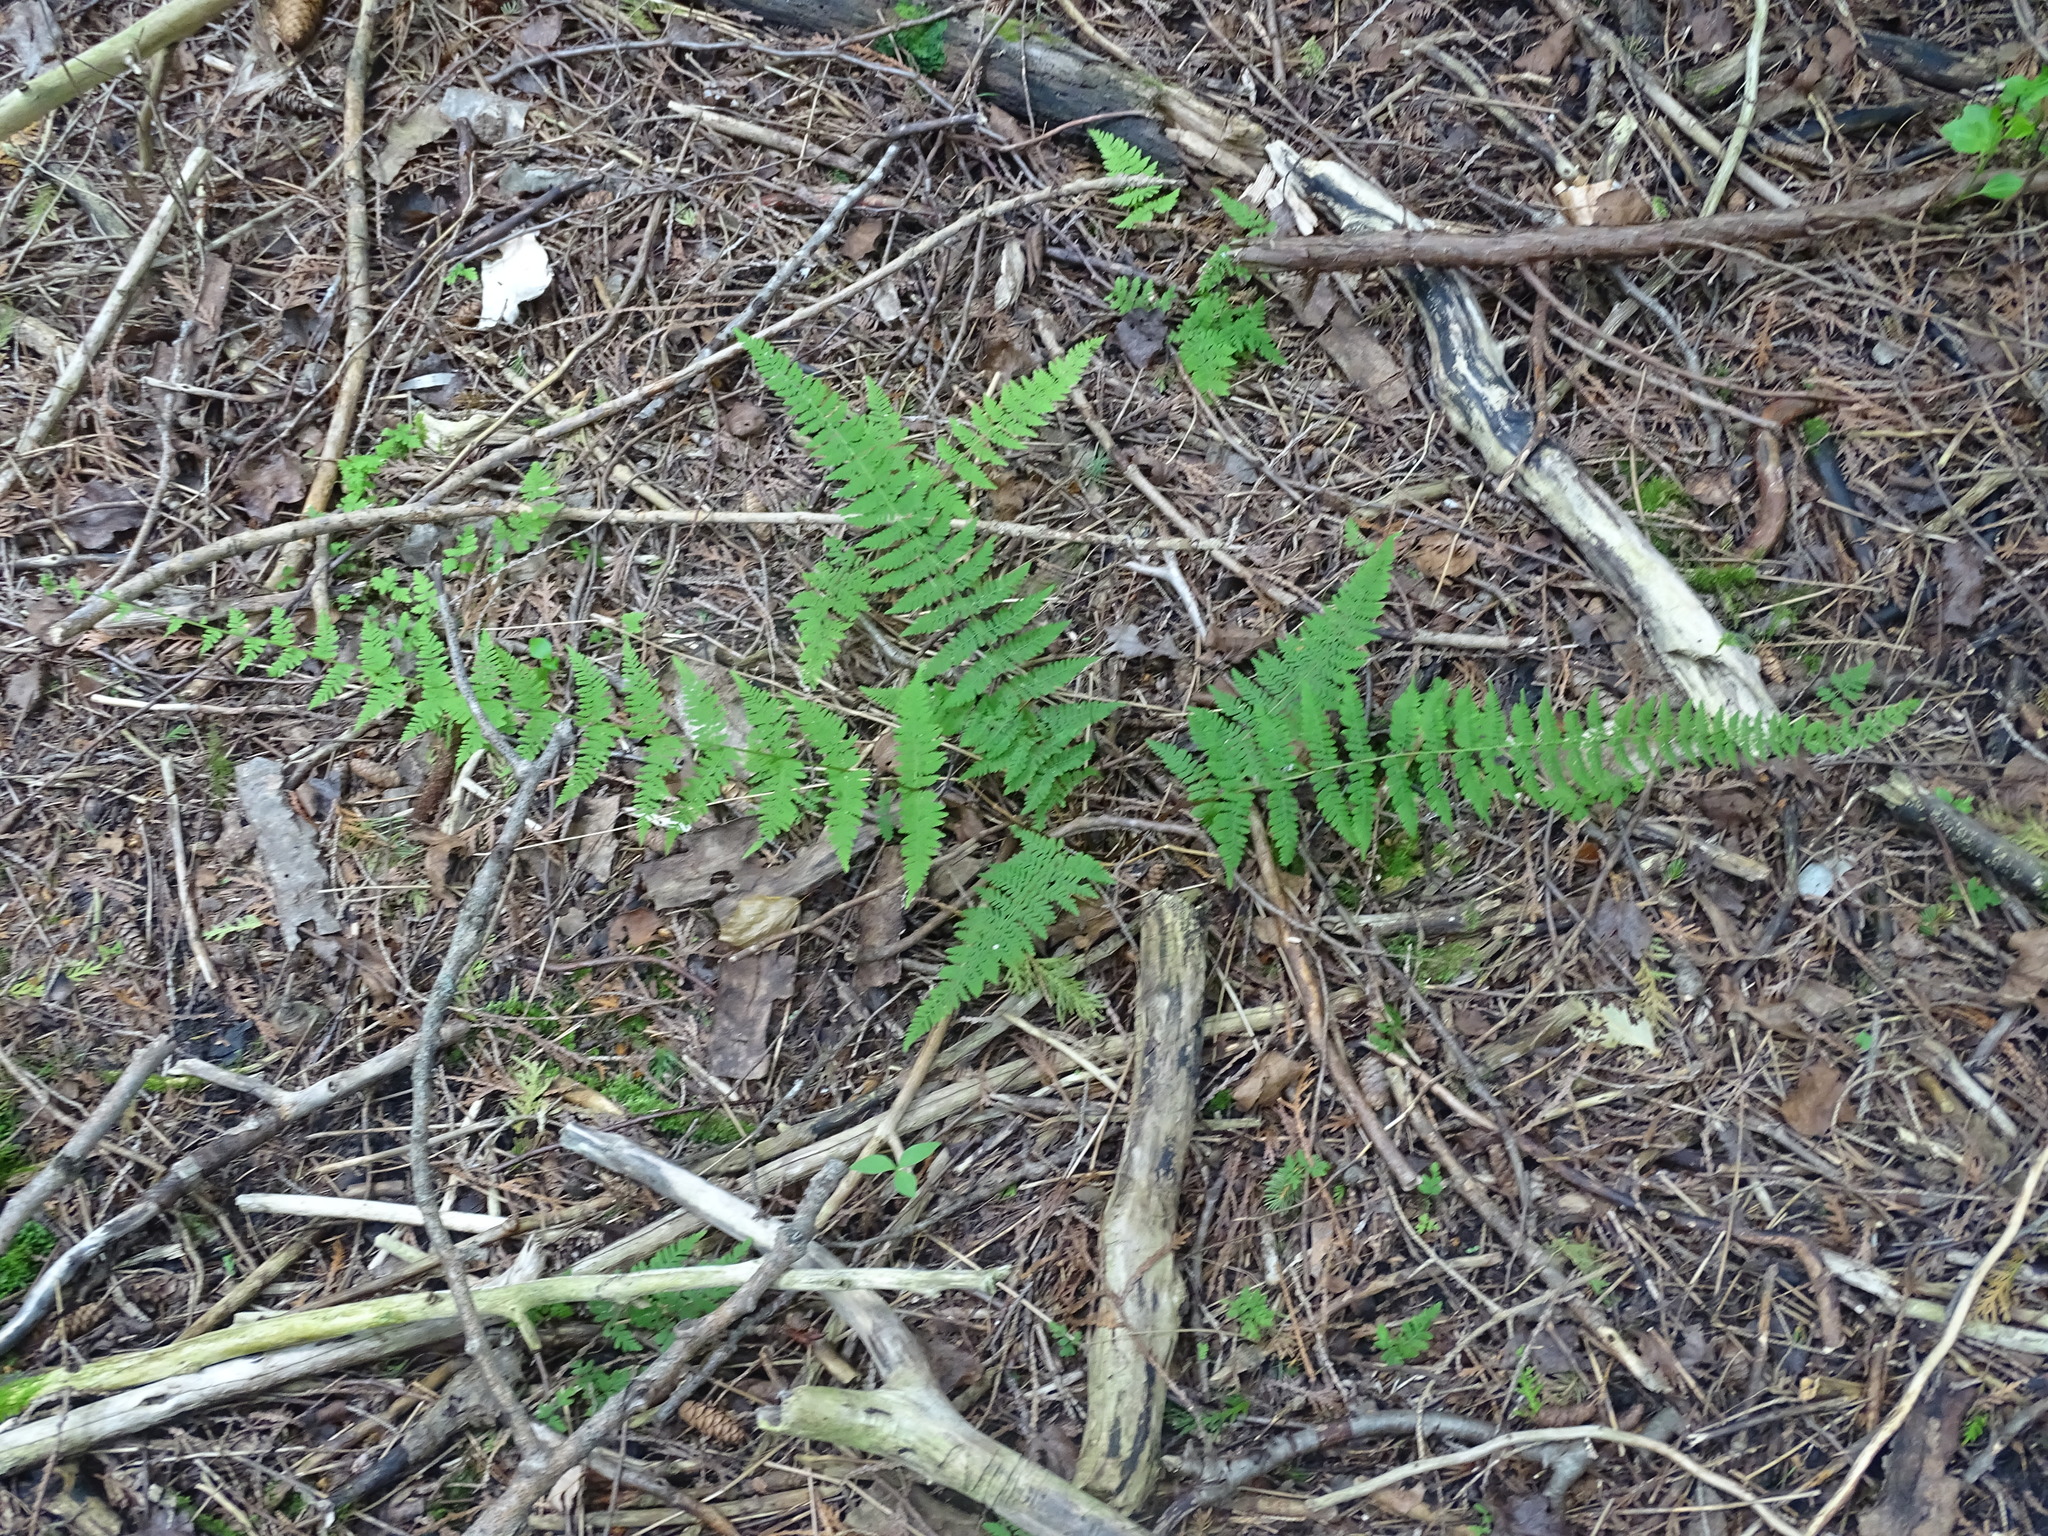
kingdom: Plantae
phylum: Tracheophyta
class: Polypodiopsida
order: Polypodiales
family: Cystopteridaceae
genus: Cystopteris
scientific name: Cystopteris bulbifera
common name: Bulblet bladder fern
